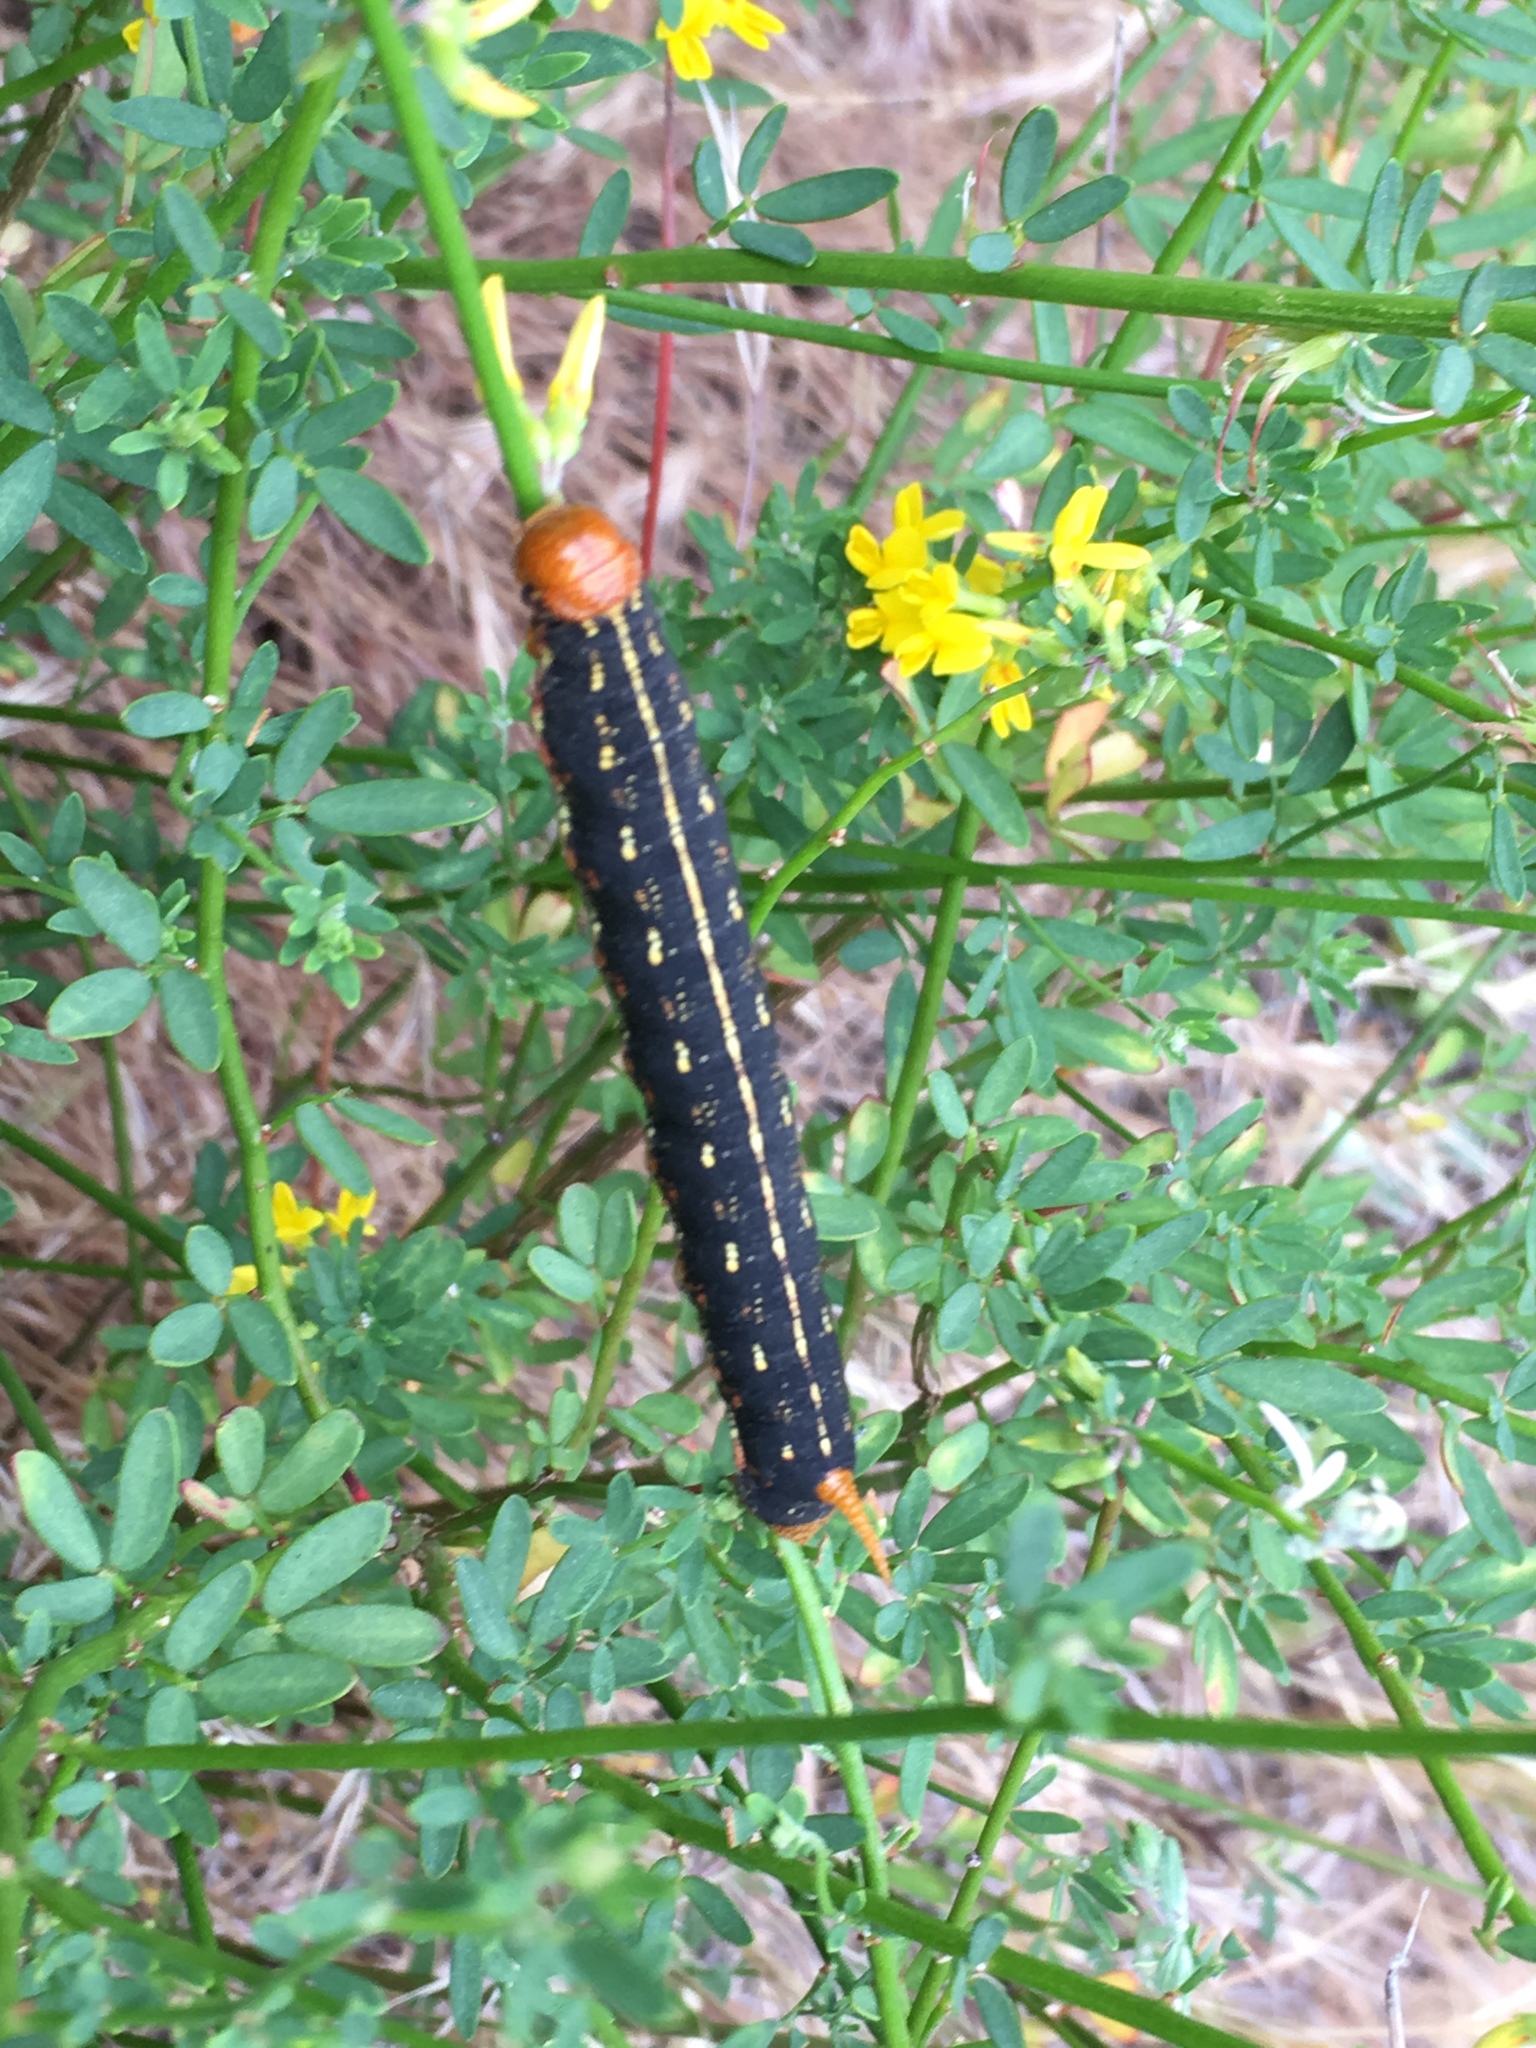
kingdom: Animalia
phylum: Arthropoda
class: Insecta
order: Lepidoptera
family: Sphingidae
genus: Hyles
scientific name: Hyles lineata
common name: White-lined sphinx
